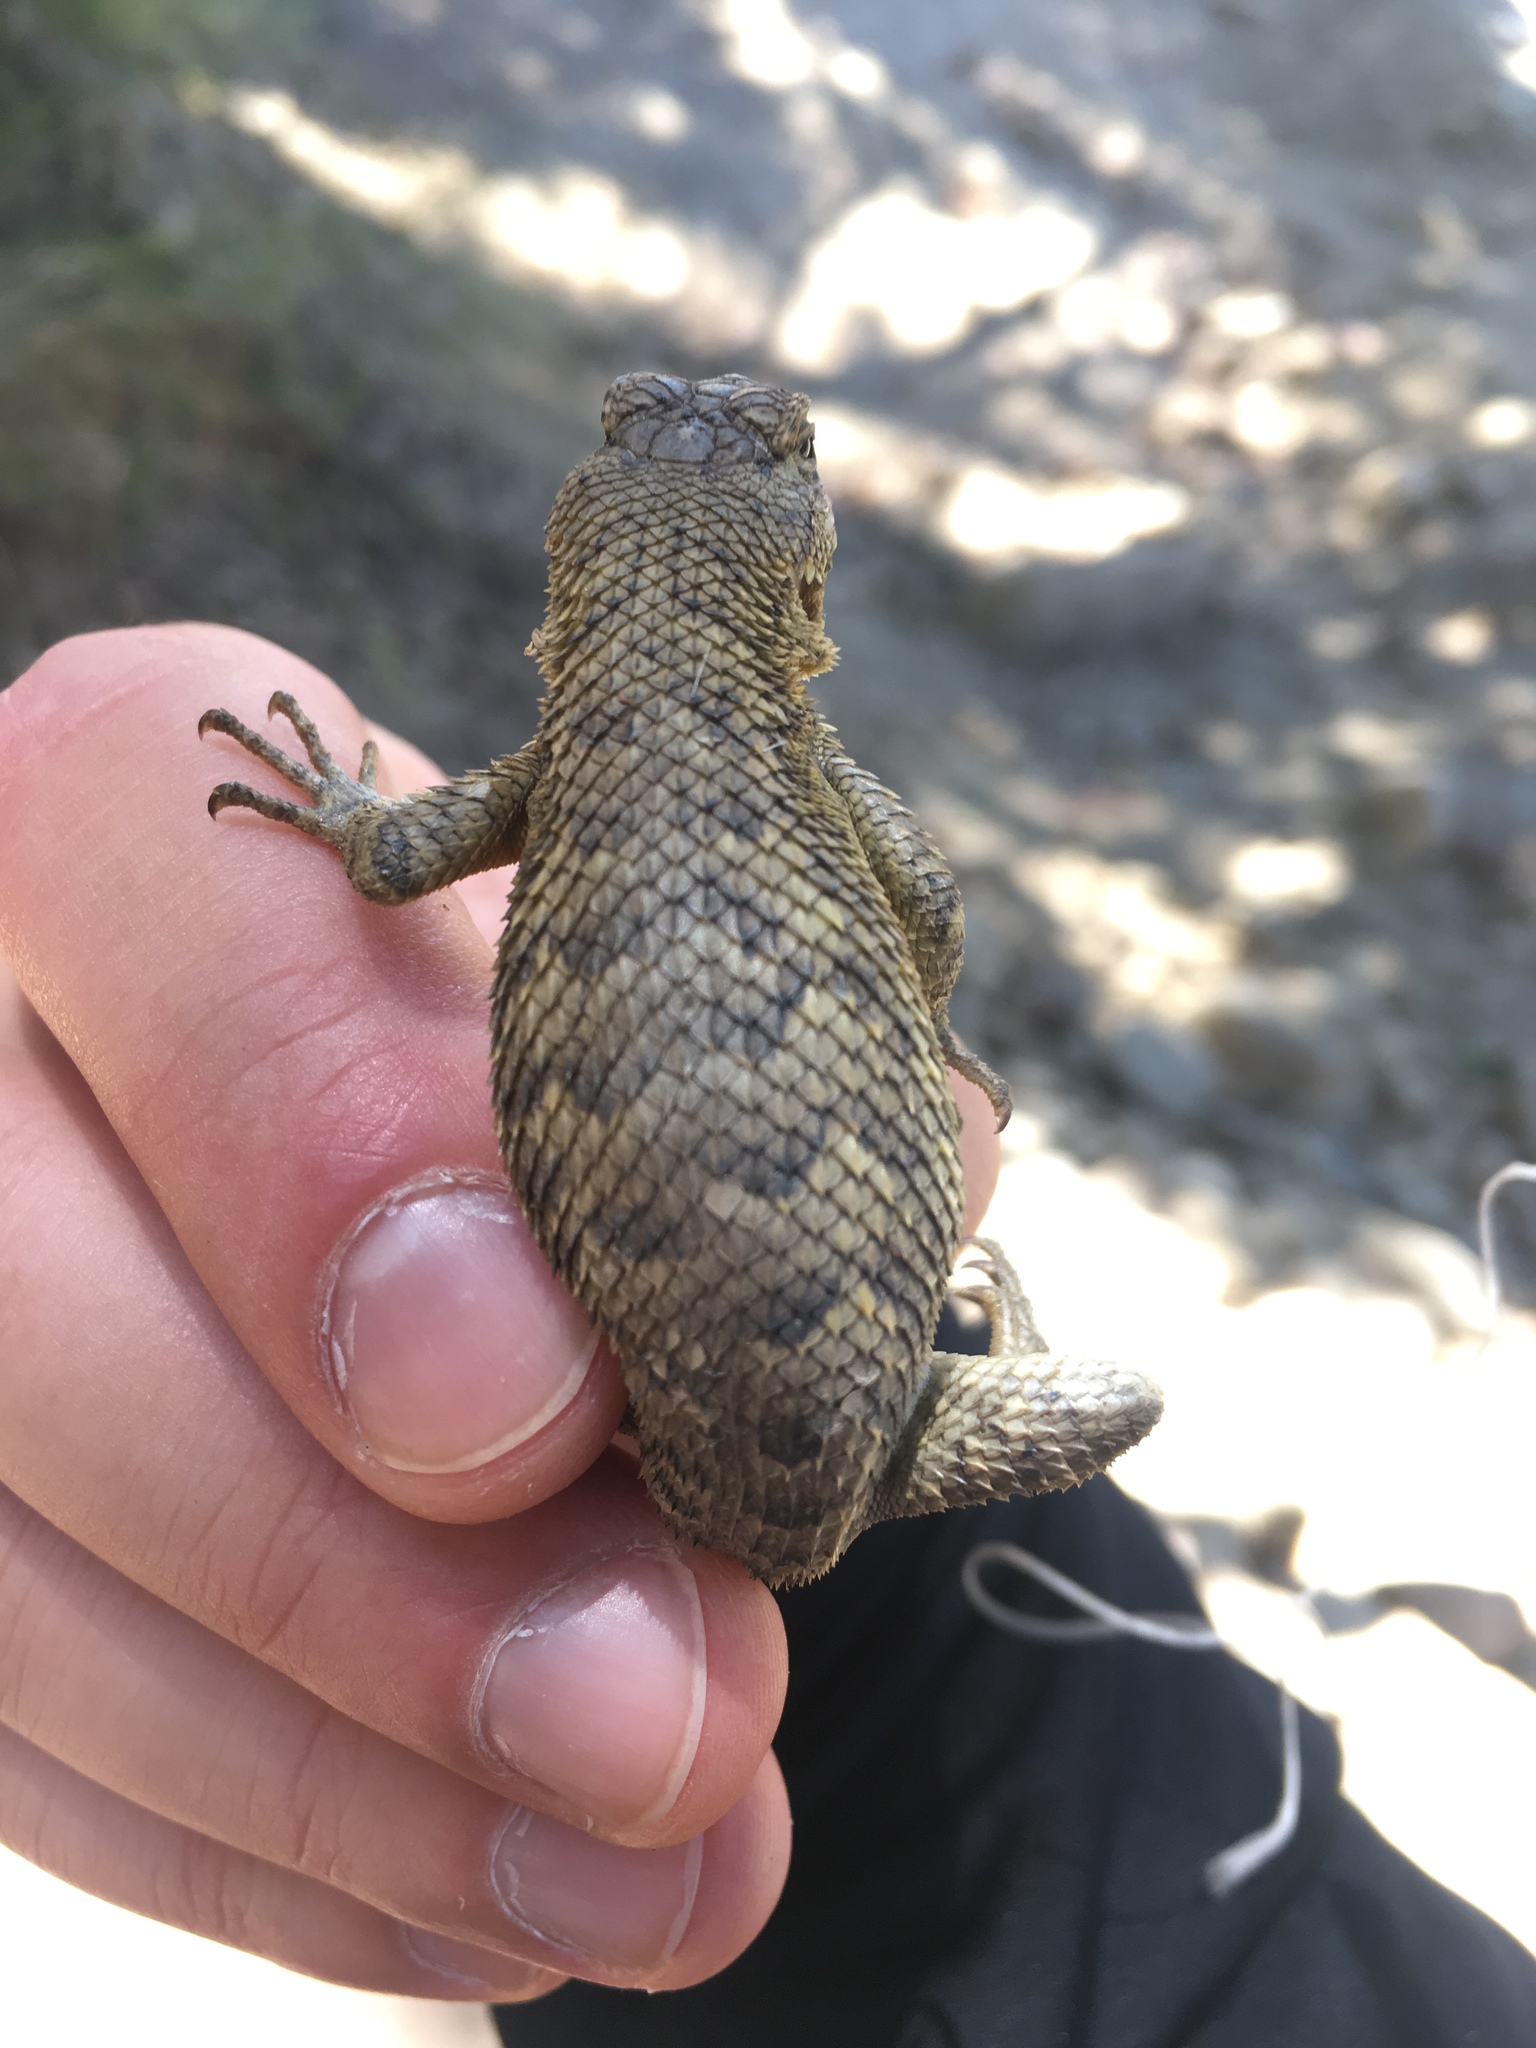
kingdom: Animalia
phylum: Chordata
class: Squamata
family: Phrynosomatidae
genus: Sceloporus
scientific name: Sceloporus occidentalis
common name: Western fence lizard
